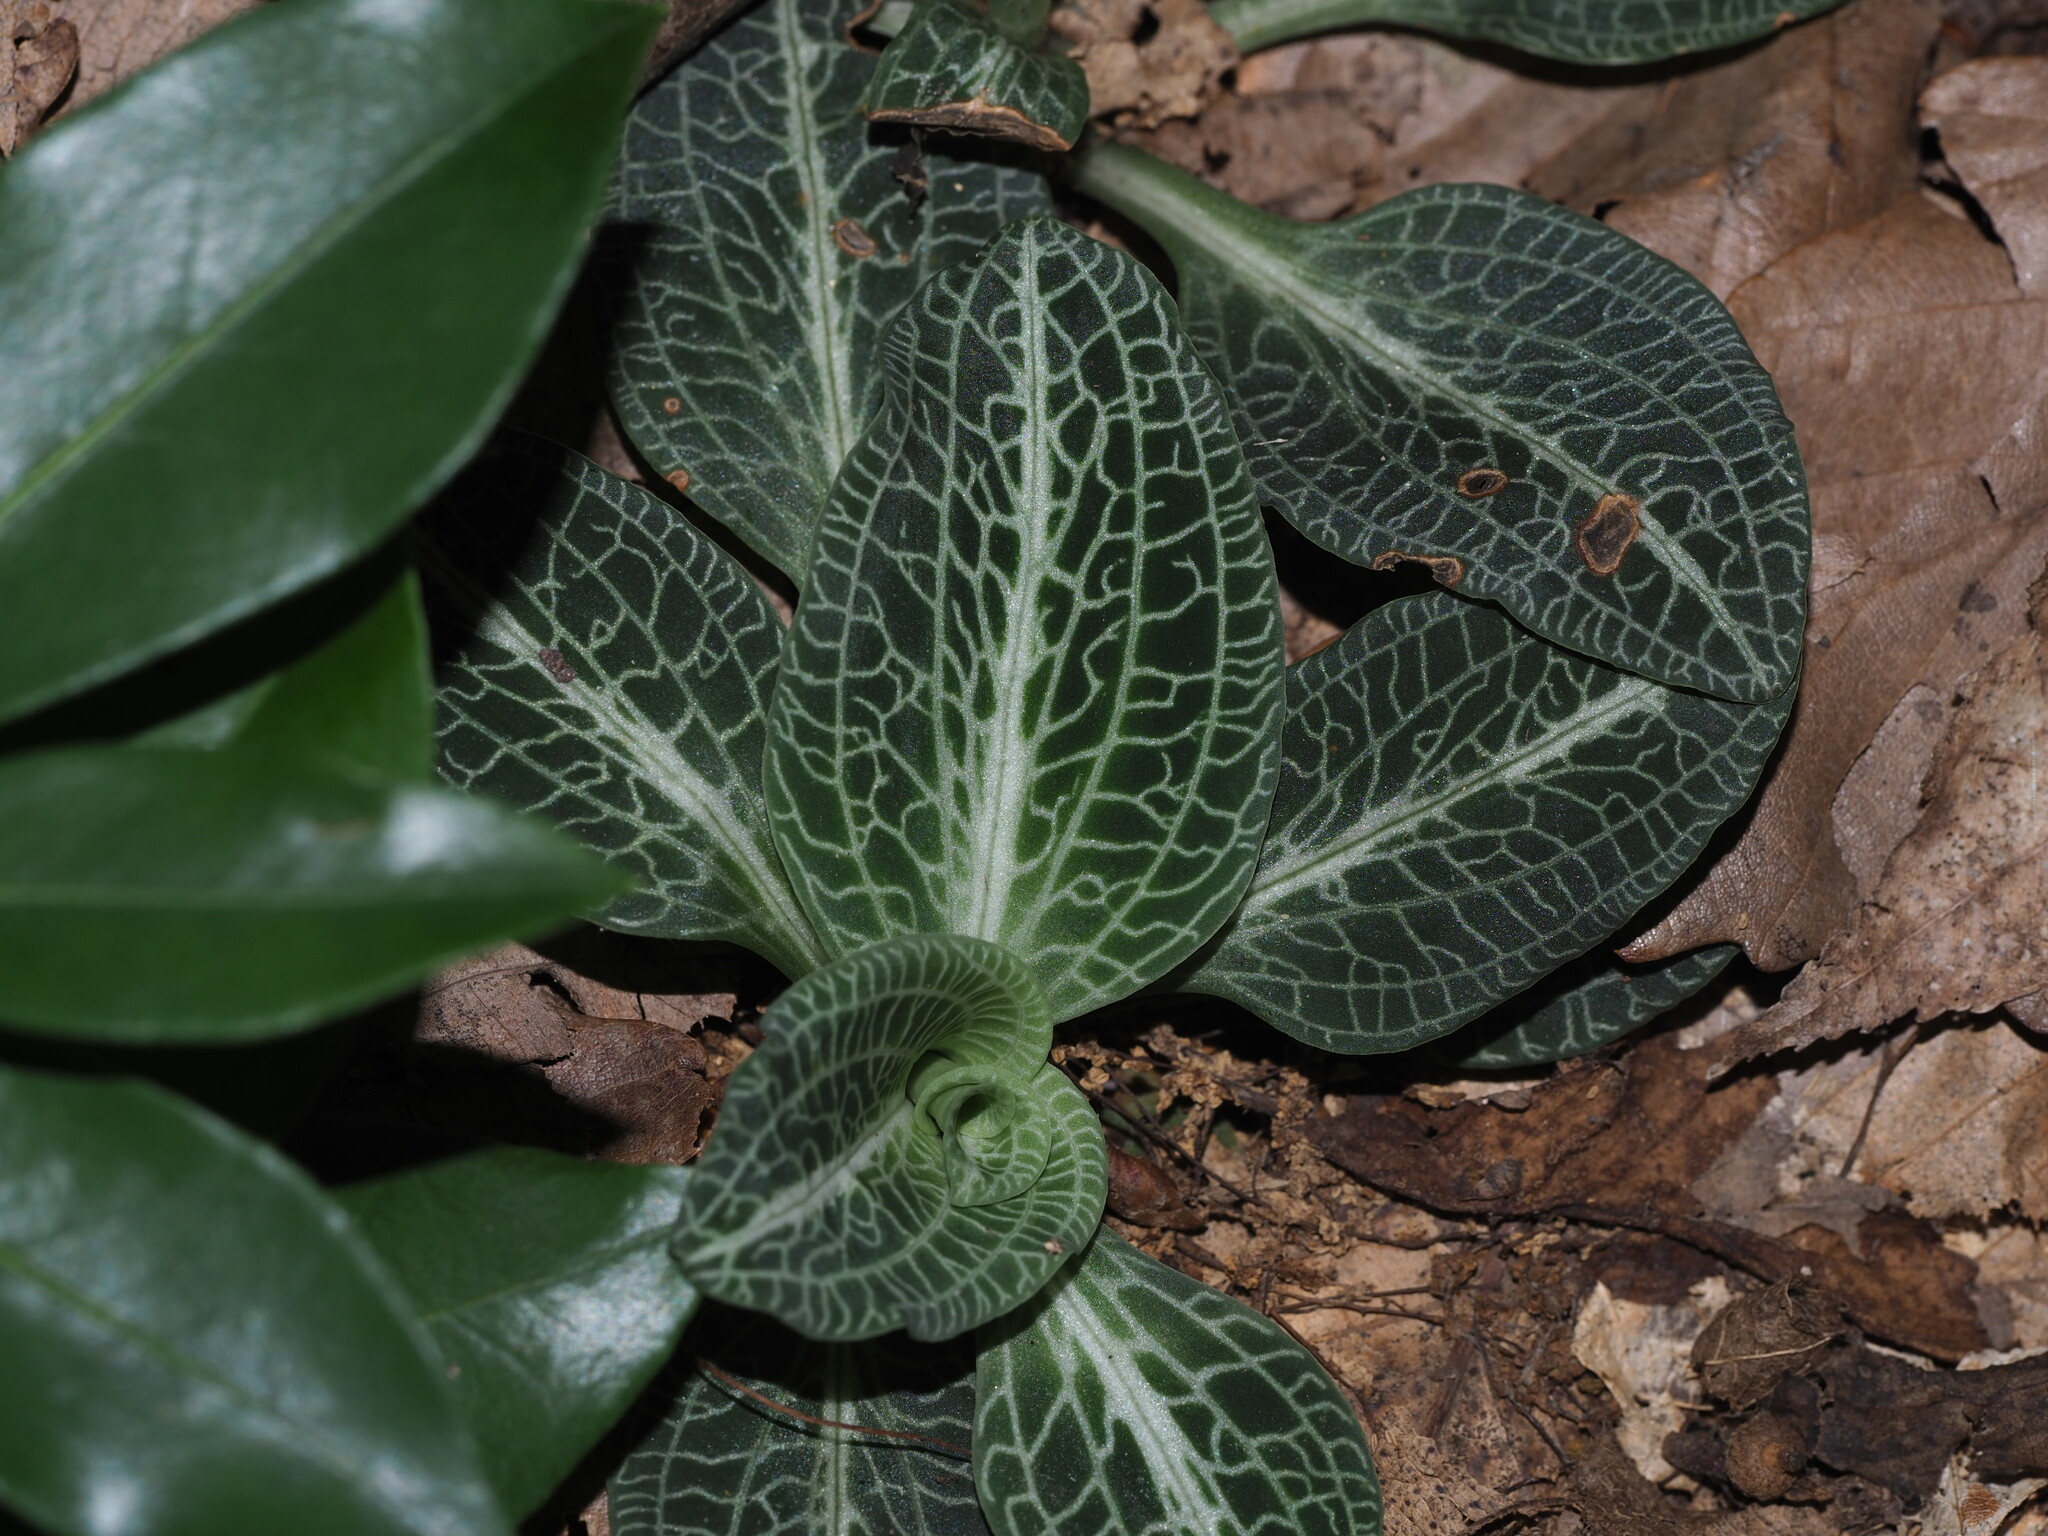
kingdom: Plantae
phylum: Tracheophyta
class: Liliopsida
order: Asparagales
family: Orchidaceae
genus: Goodyera
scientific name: Goodyera pubescens
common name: Downy rattlesnake-plantain
